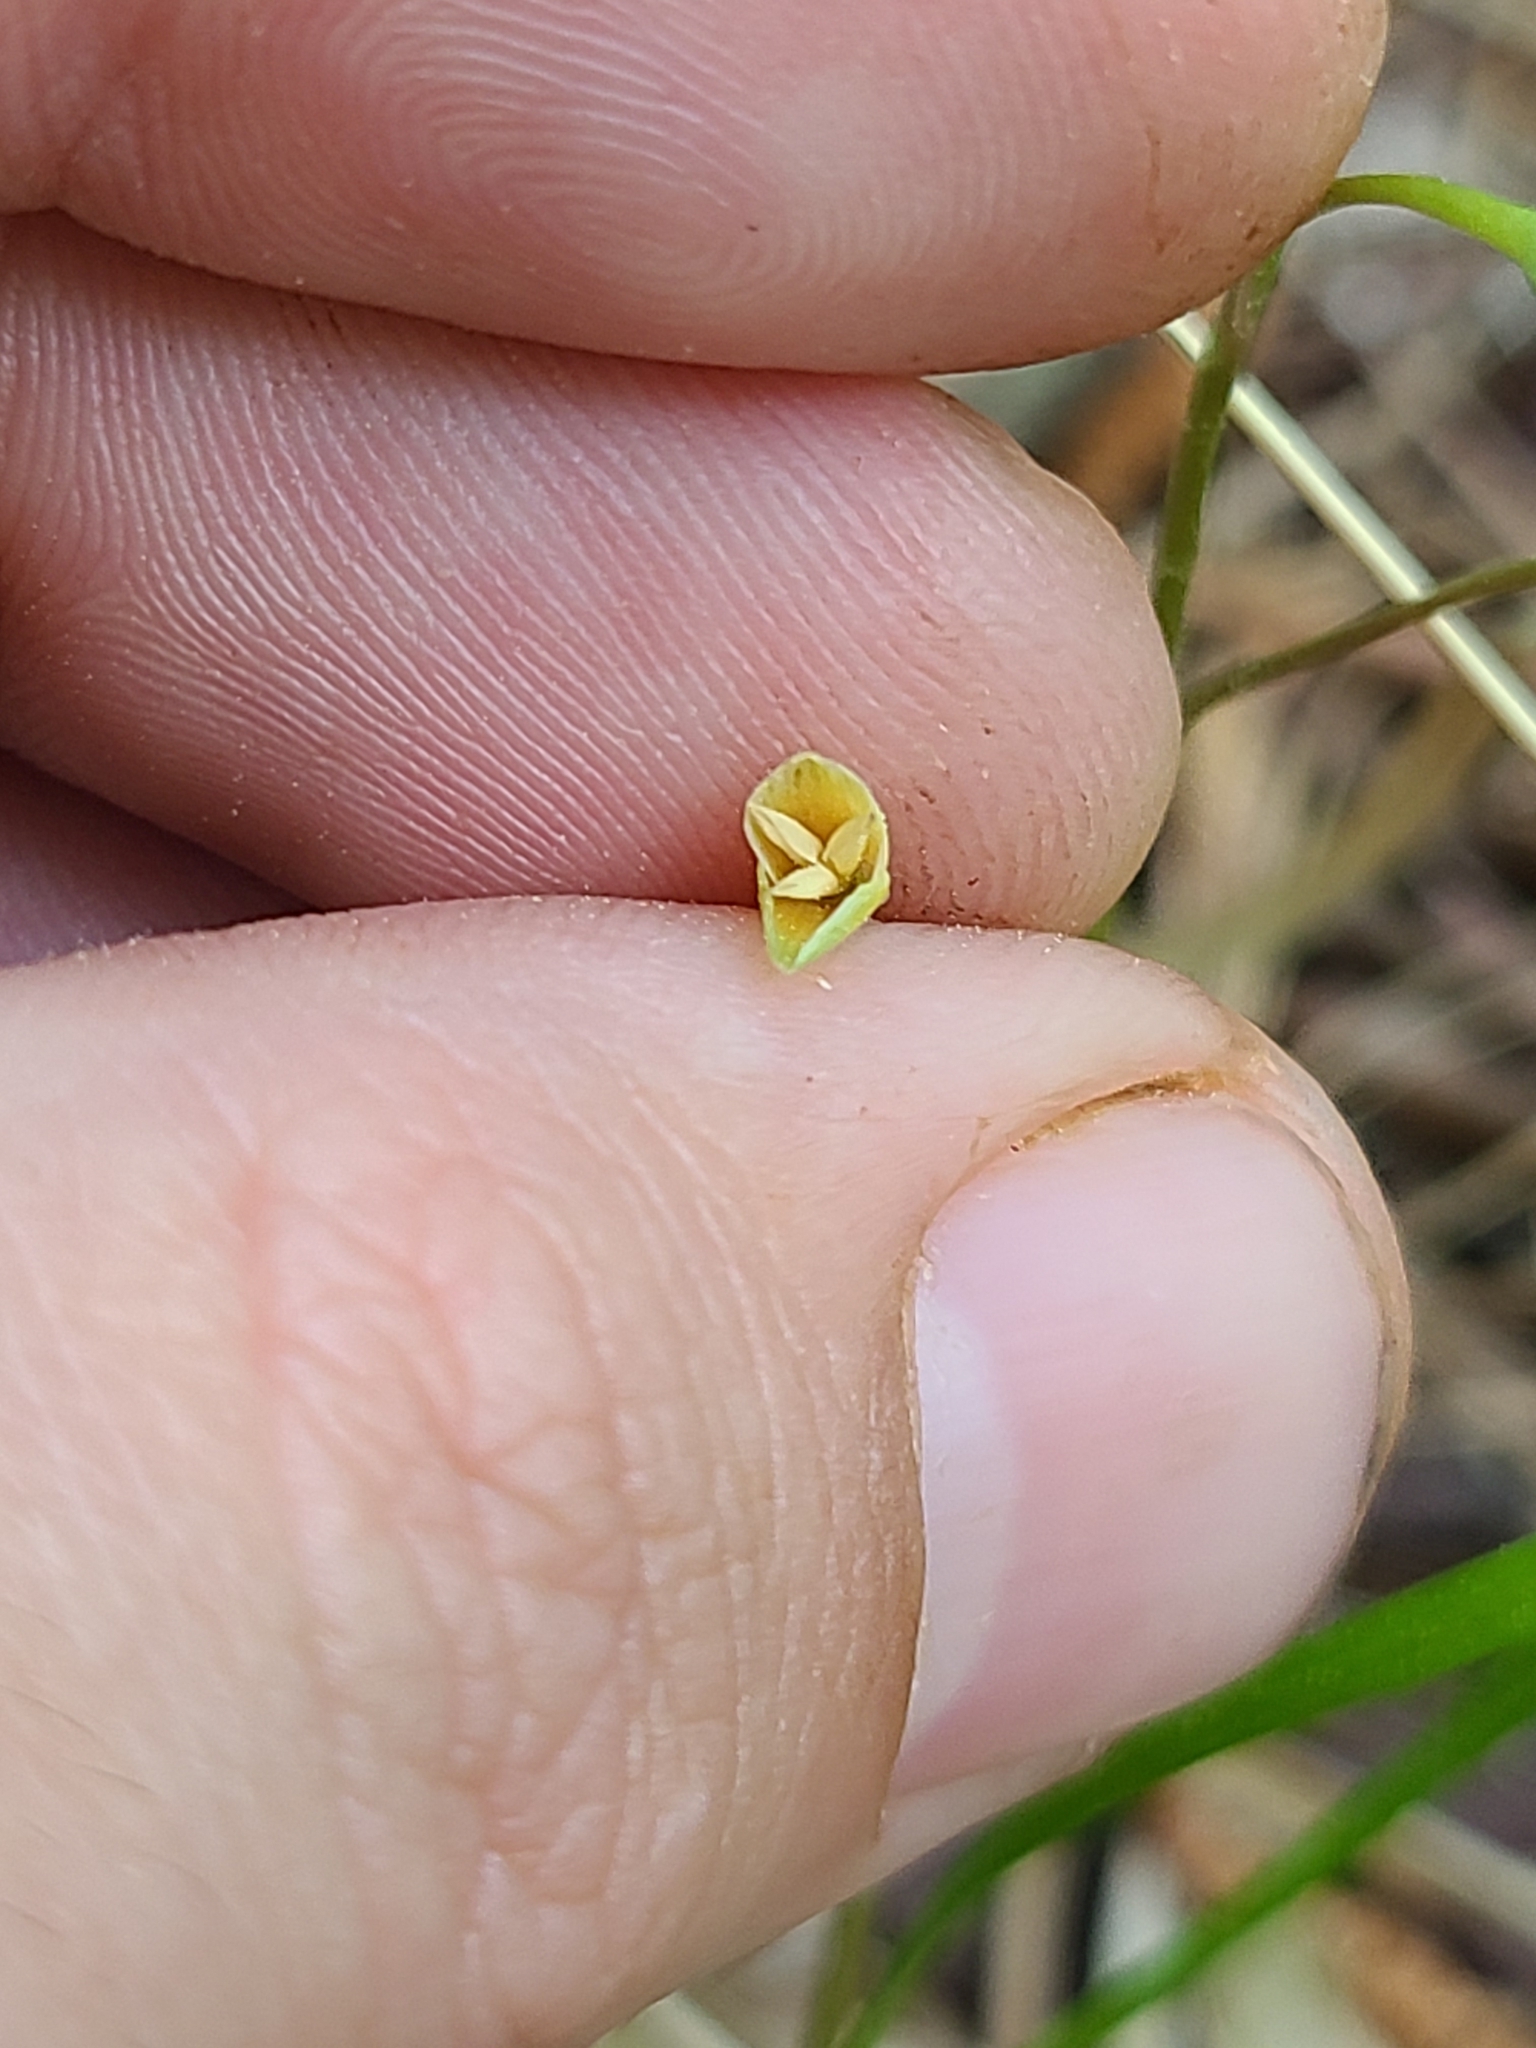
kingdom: Plantae
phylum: Tracheophyta
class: Magnoliopsida
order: Caryophyllales
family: Montiaceae
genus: Claytonia
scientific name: Claytonia virginica
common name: Virginia springbeauty
